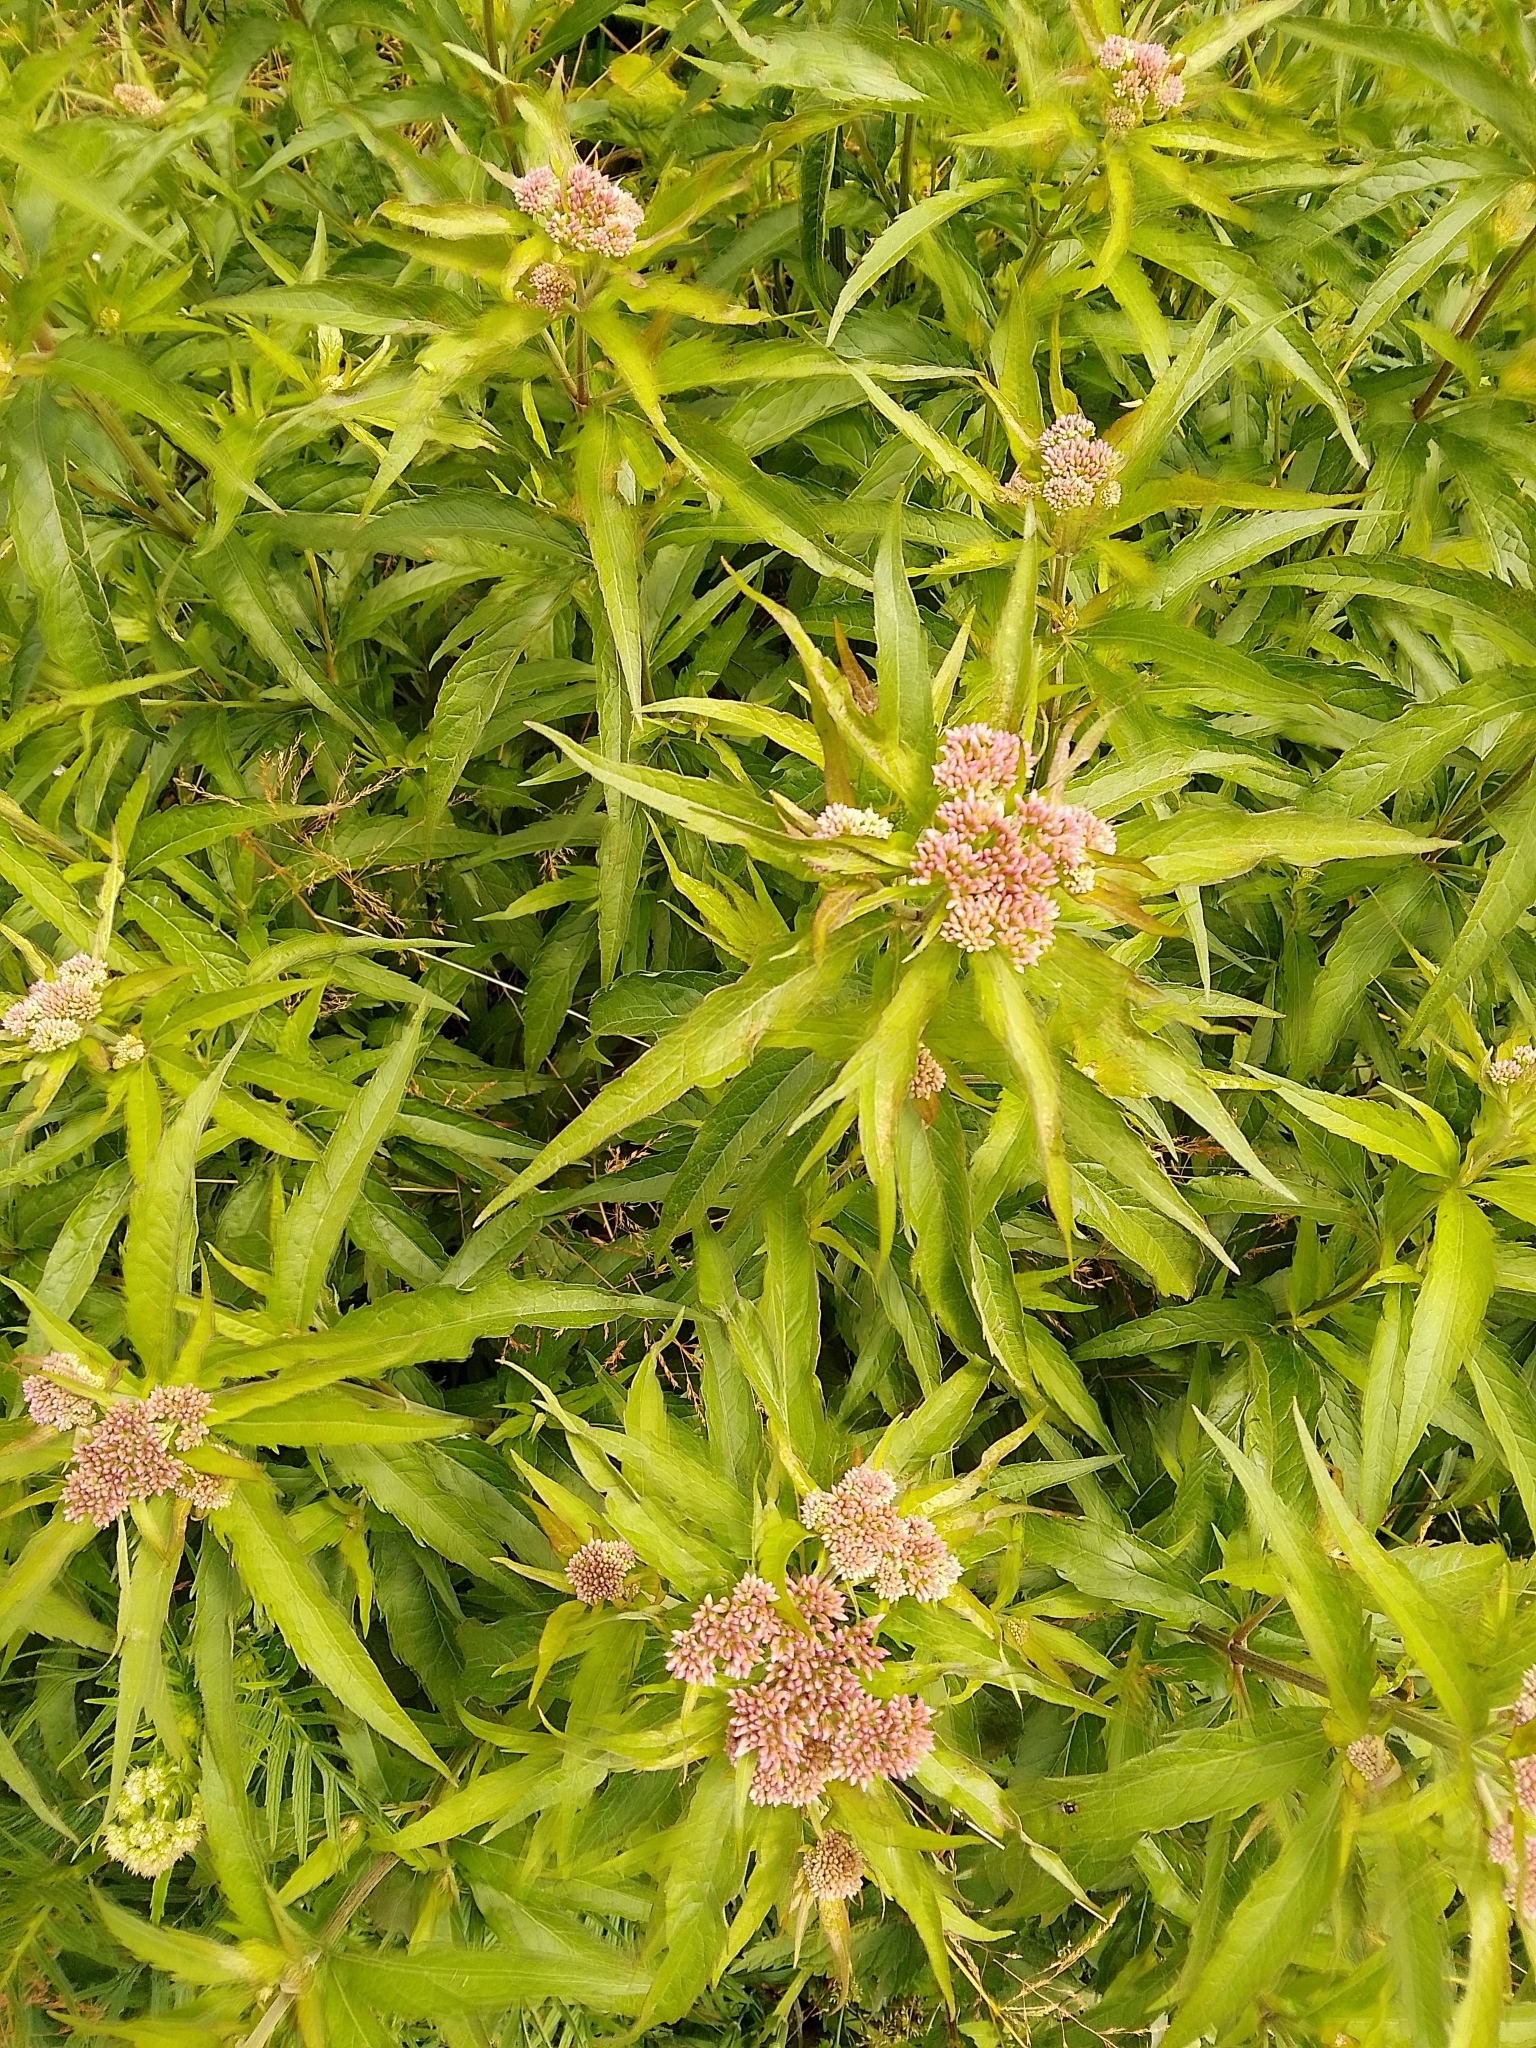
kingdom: Plantae
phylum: Tracheophyta
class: Magnoliopsida
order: Asterales
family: Asteraceae
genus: Eupatorium
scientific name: Eupatorium cannabinum
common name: Hemp-agrimony
